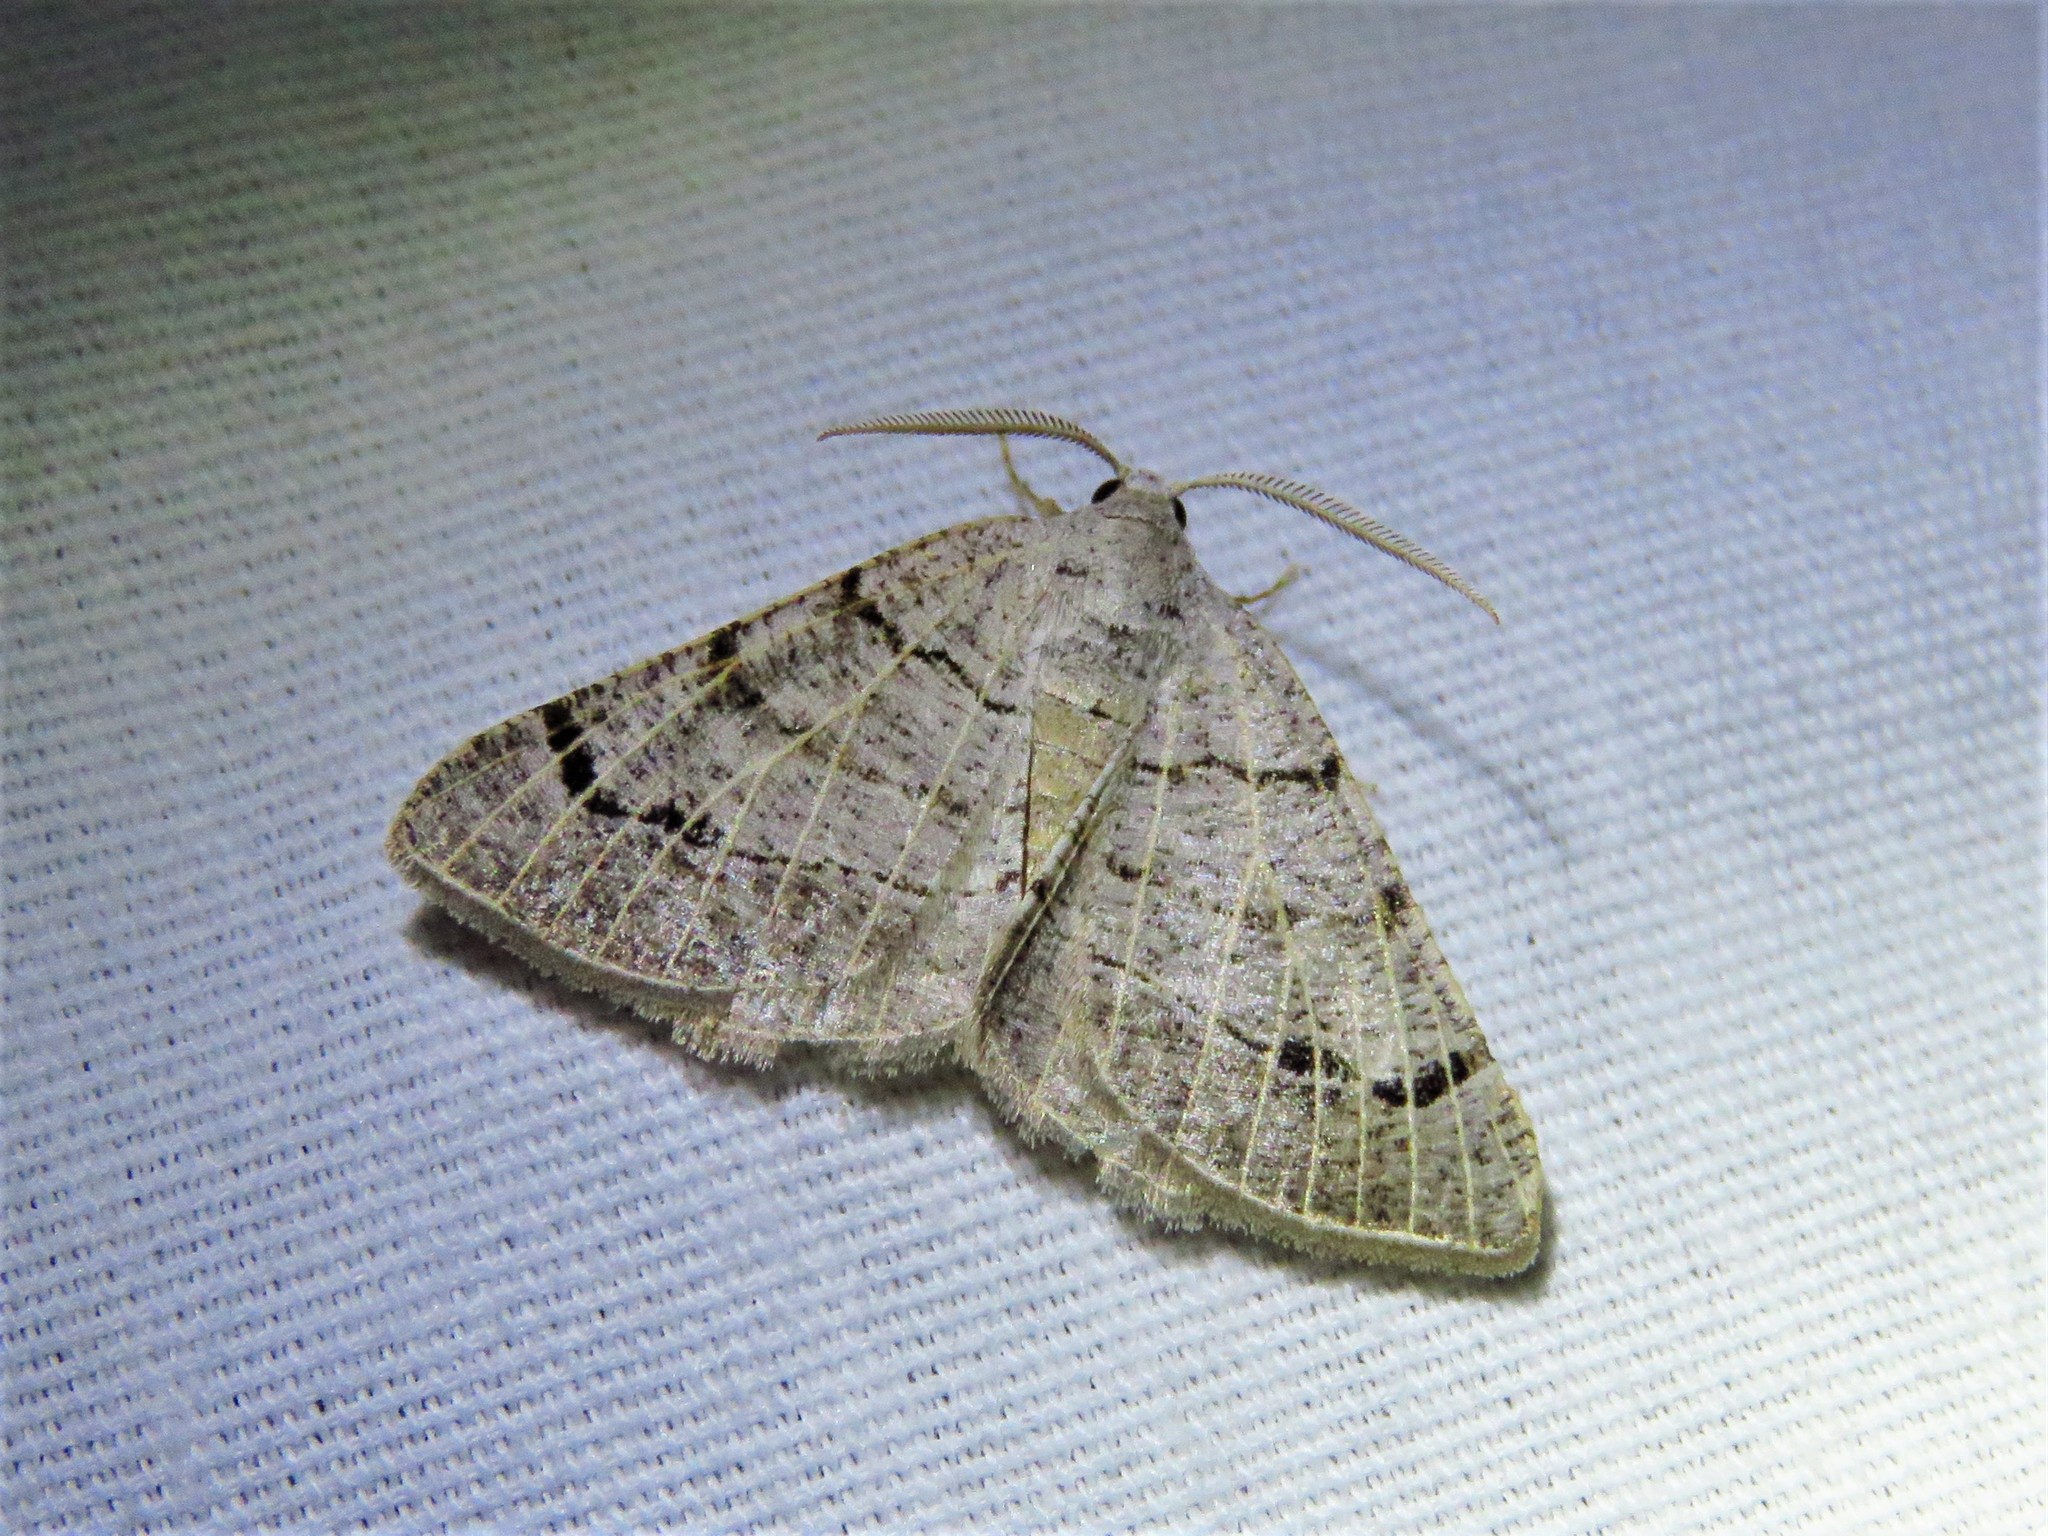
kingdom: Animalia
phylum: Arthropoda
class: Insecta
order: Lepidoptera
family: Geometridae
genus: Isturgia
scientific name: Isturgia dislocaria
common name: Pale-viened enconista
